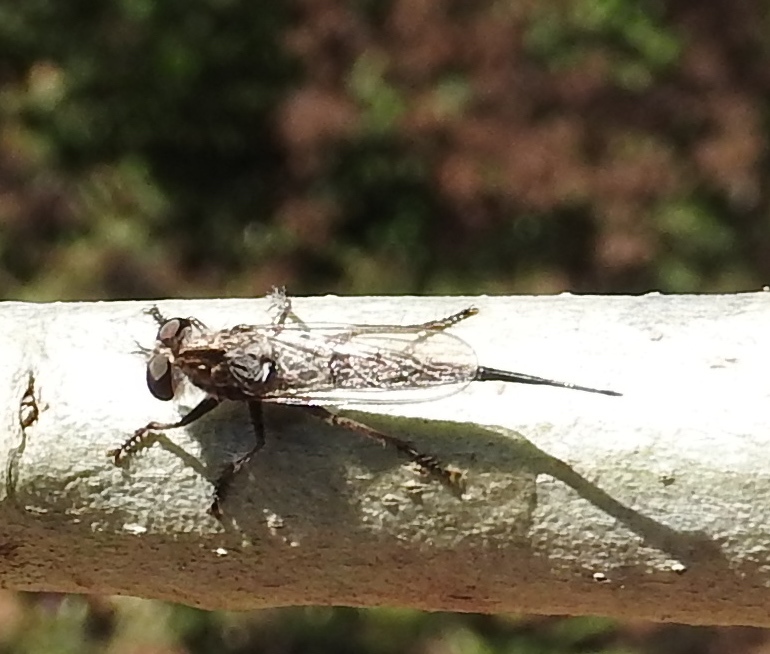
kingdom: Animalia
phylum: Arthropoda
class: Insecta
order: Diptera
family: Asilidae
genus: Efferia
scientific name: Efferia
